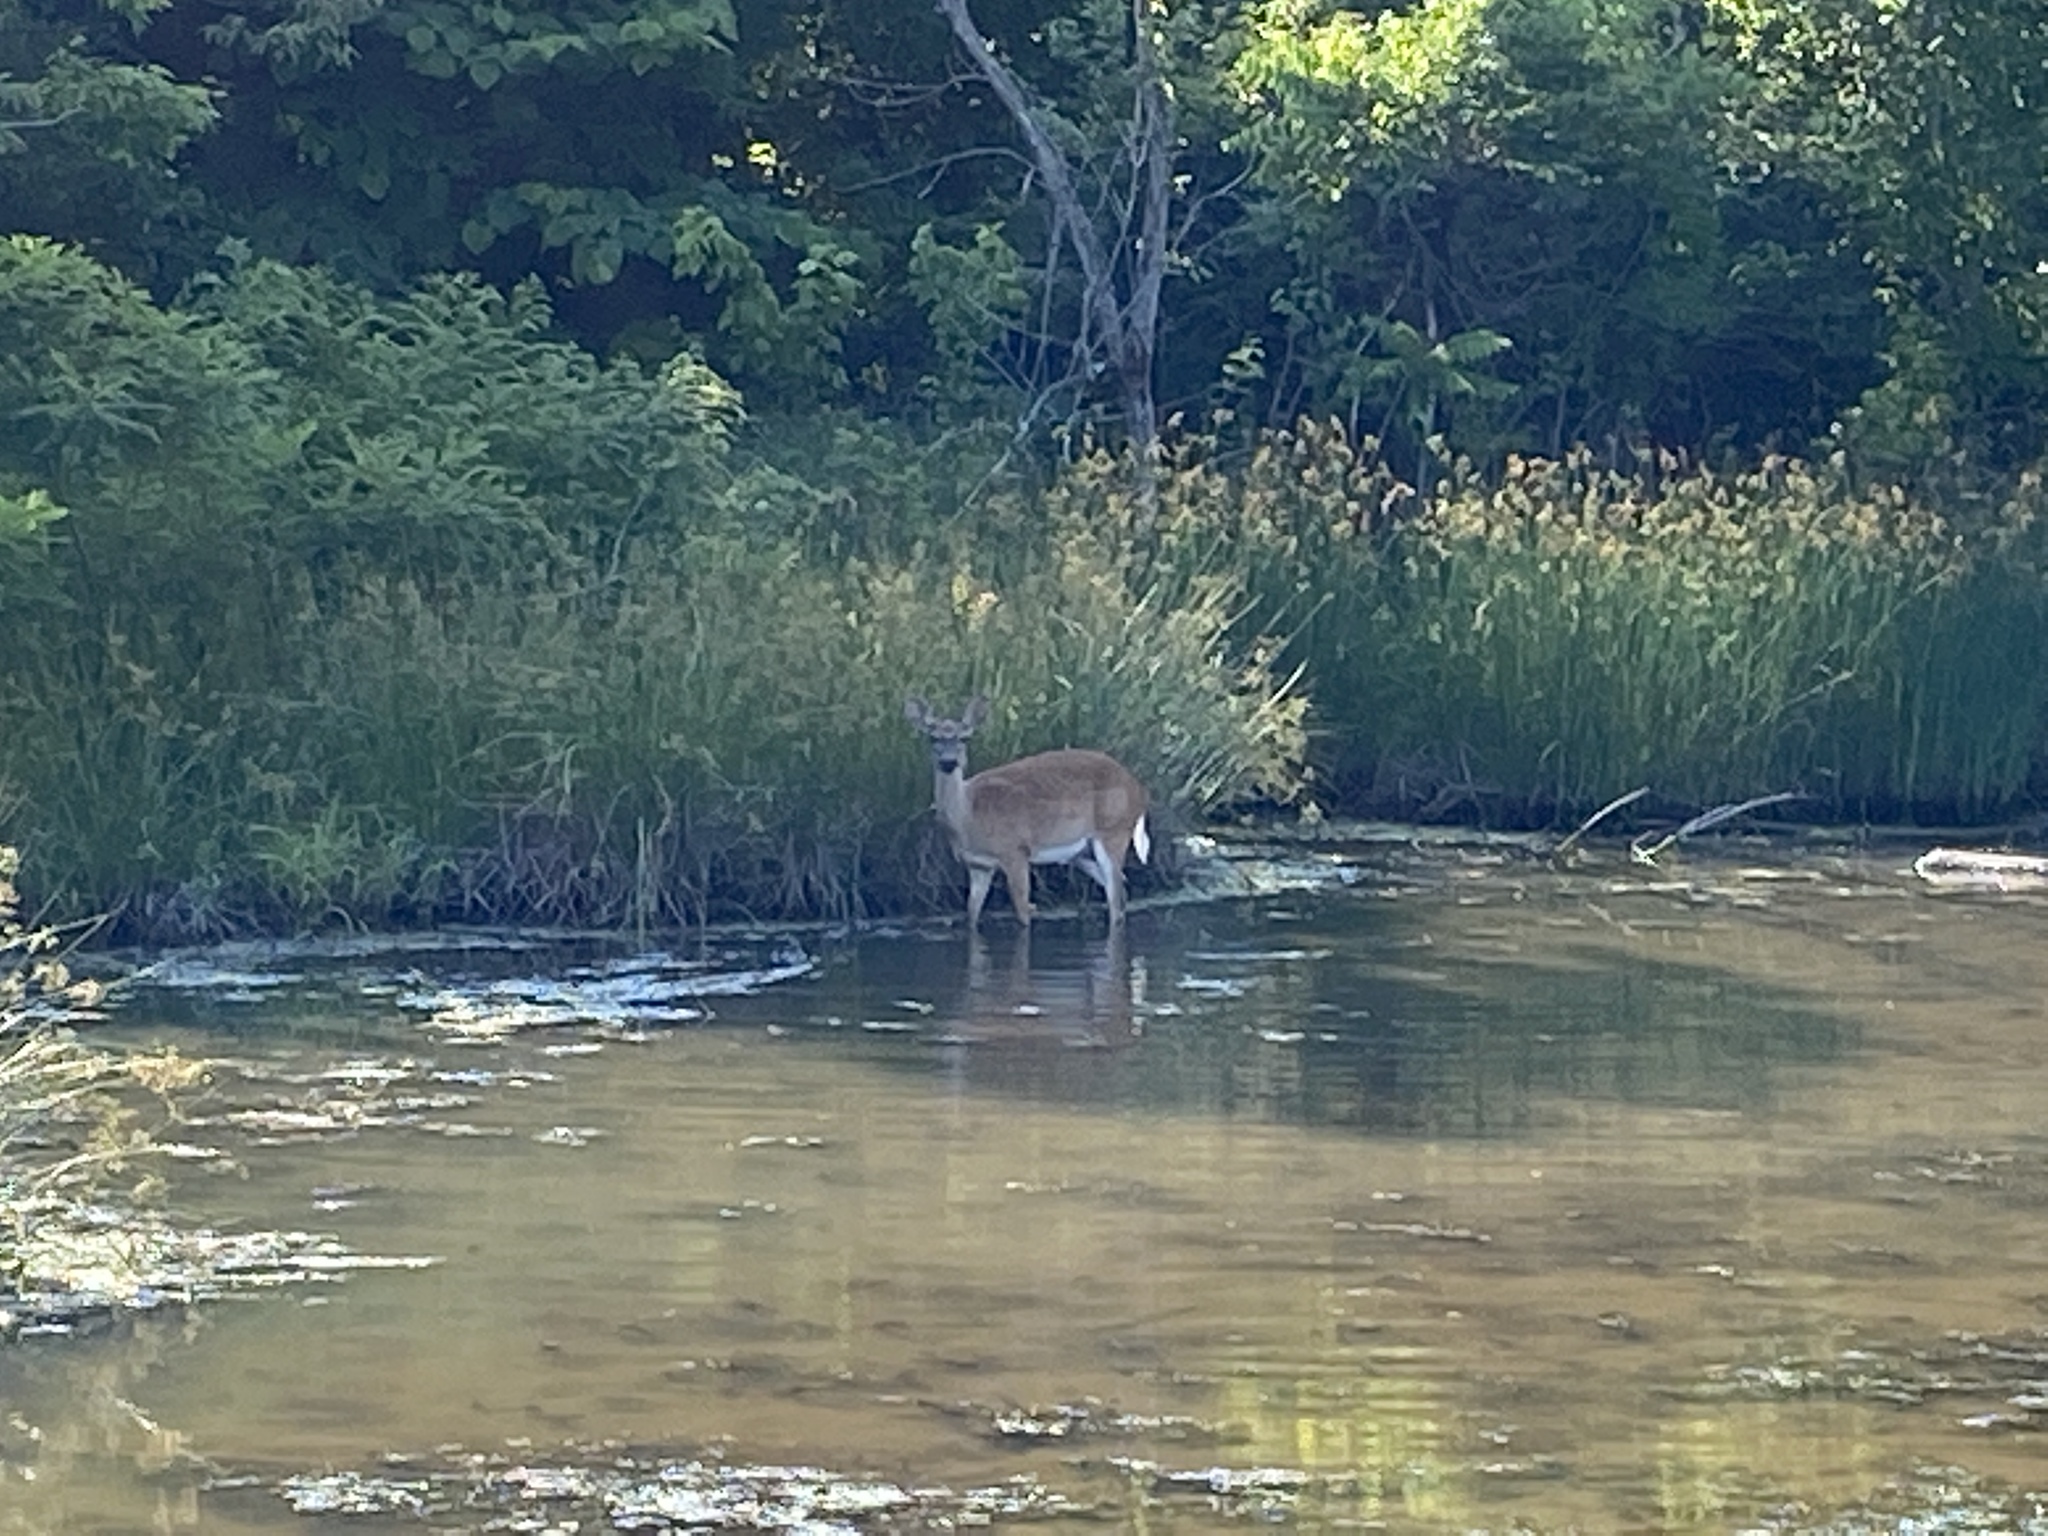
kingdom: Animalia
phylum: Chordata
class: Mammalia
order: Artiodactyla
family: Cervidae
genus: Odocoileus
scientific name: Odocoileus virginianus
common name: White-tailed deer
